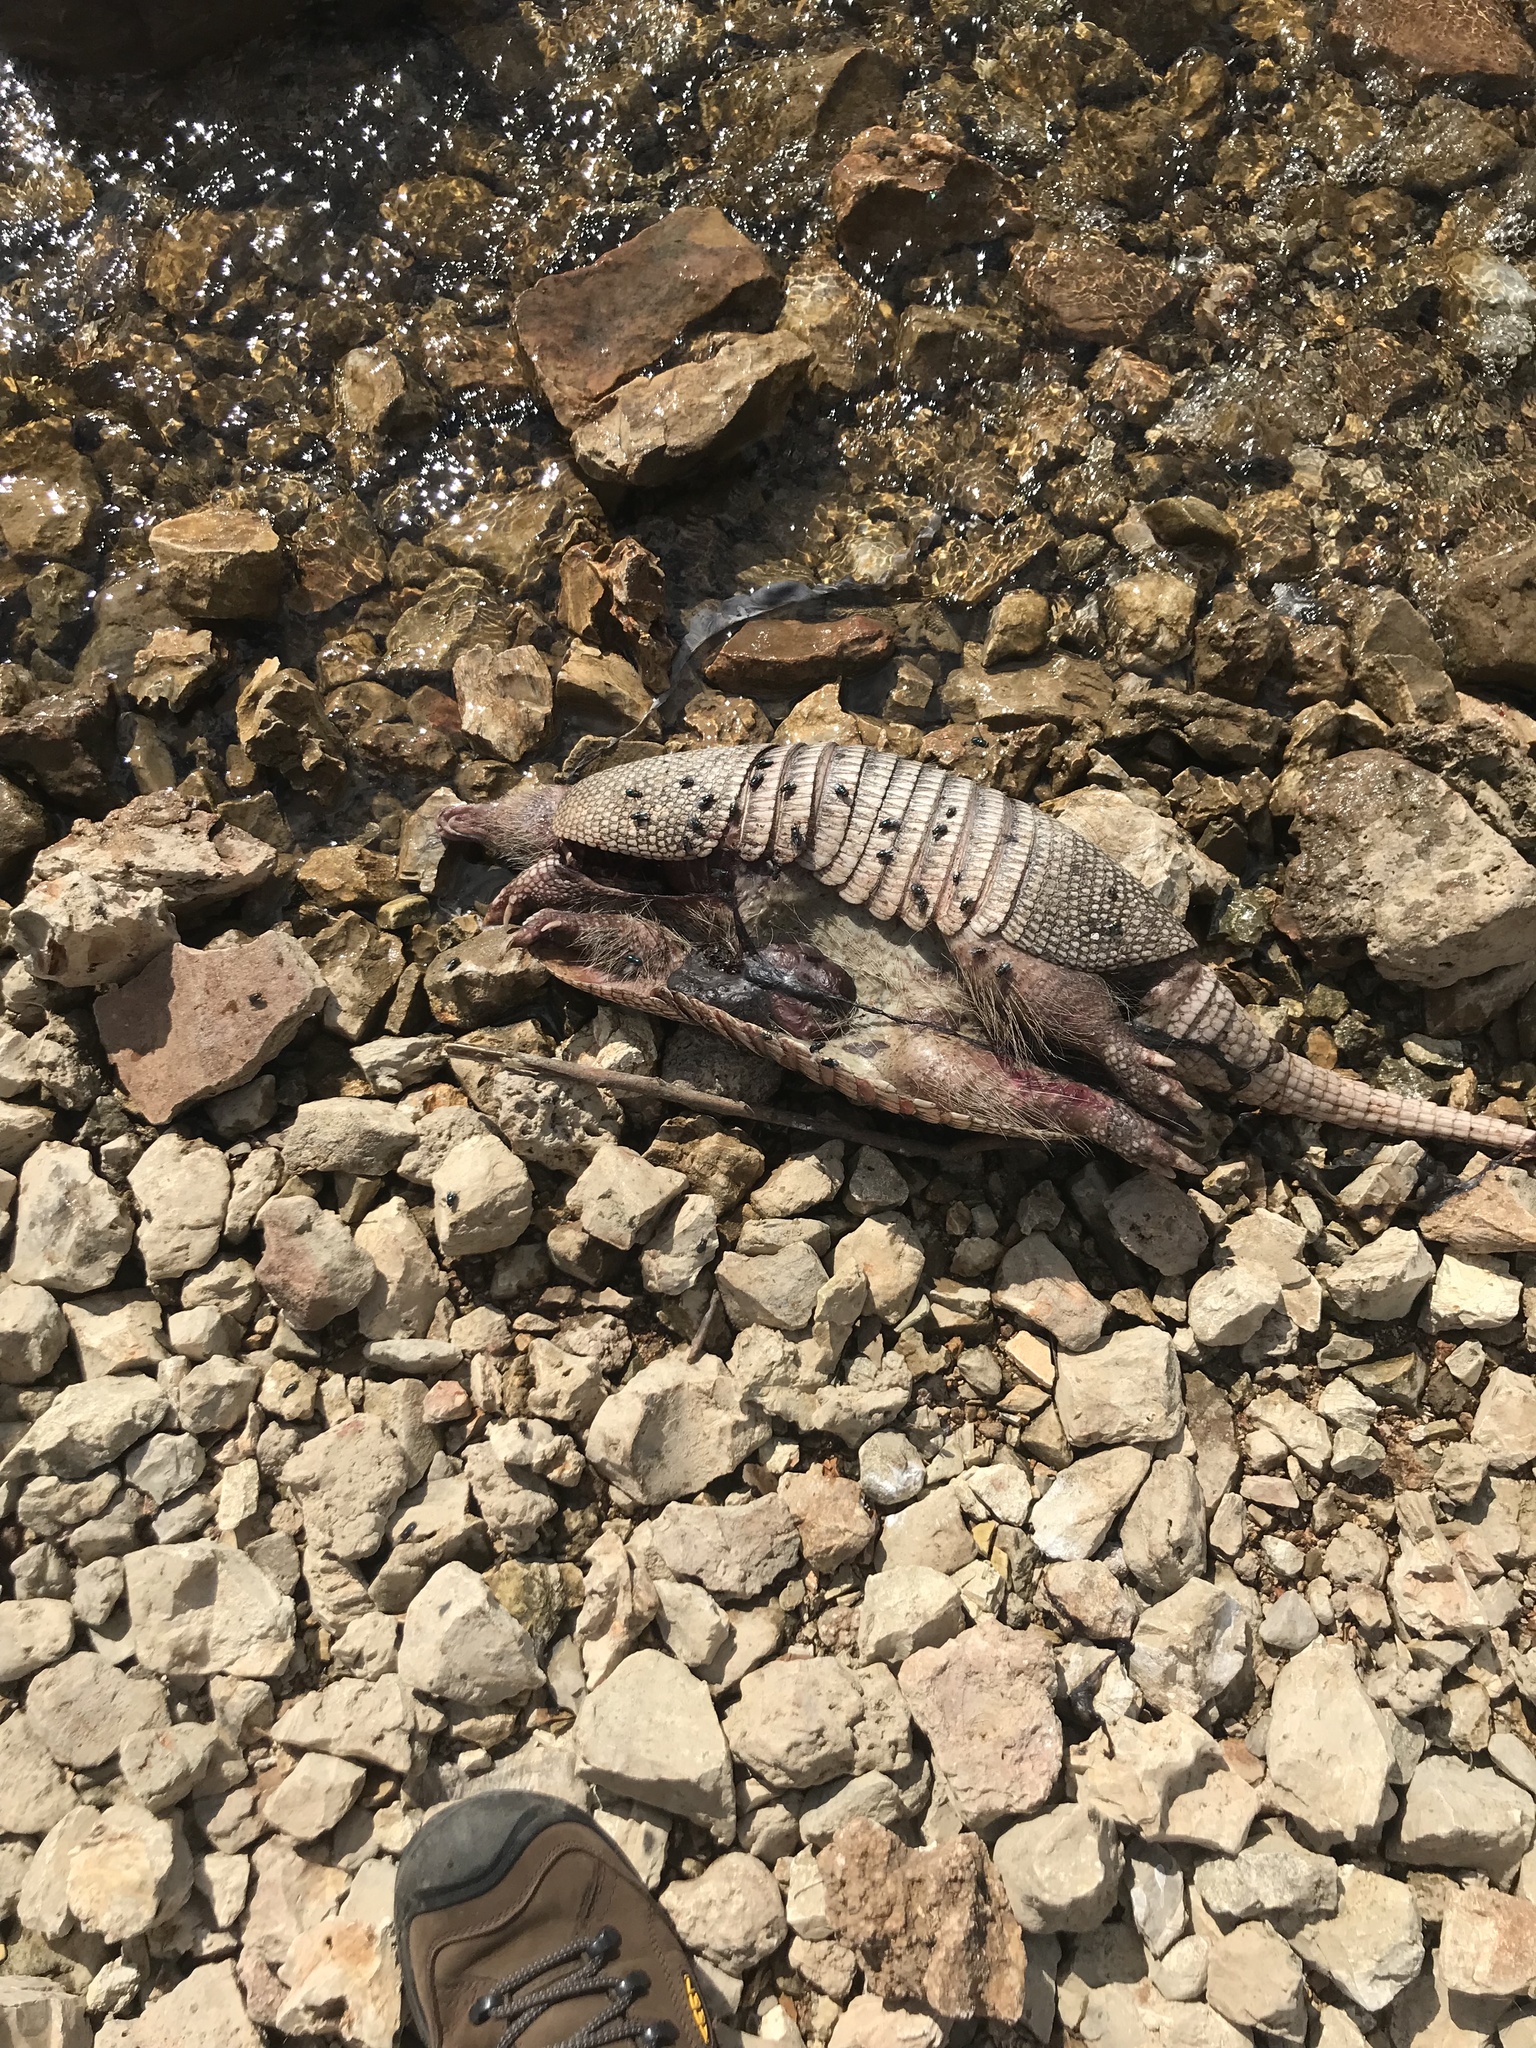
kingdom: Animalia
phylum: Chordata
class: Mammalia
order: Cingulata
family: Dasypodidae
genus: Dasypus
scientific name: Dasypus novemcinctus
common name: Nine-banded armadillo
